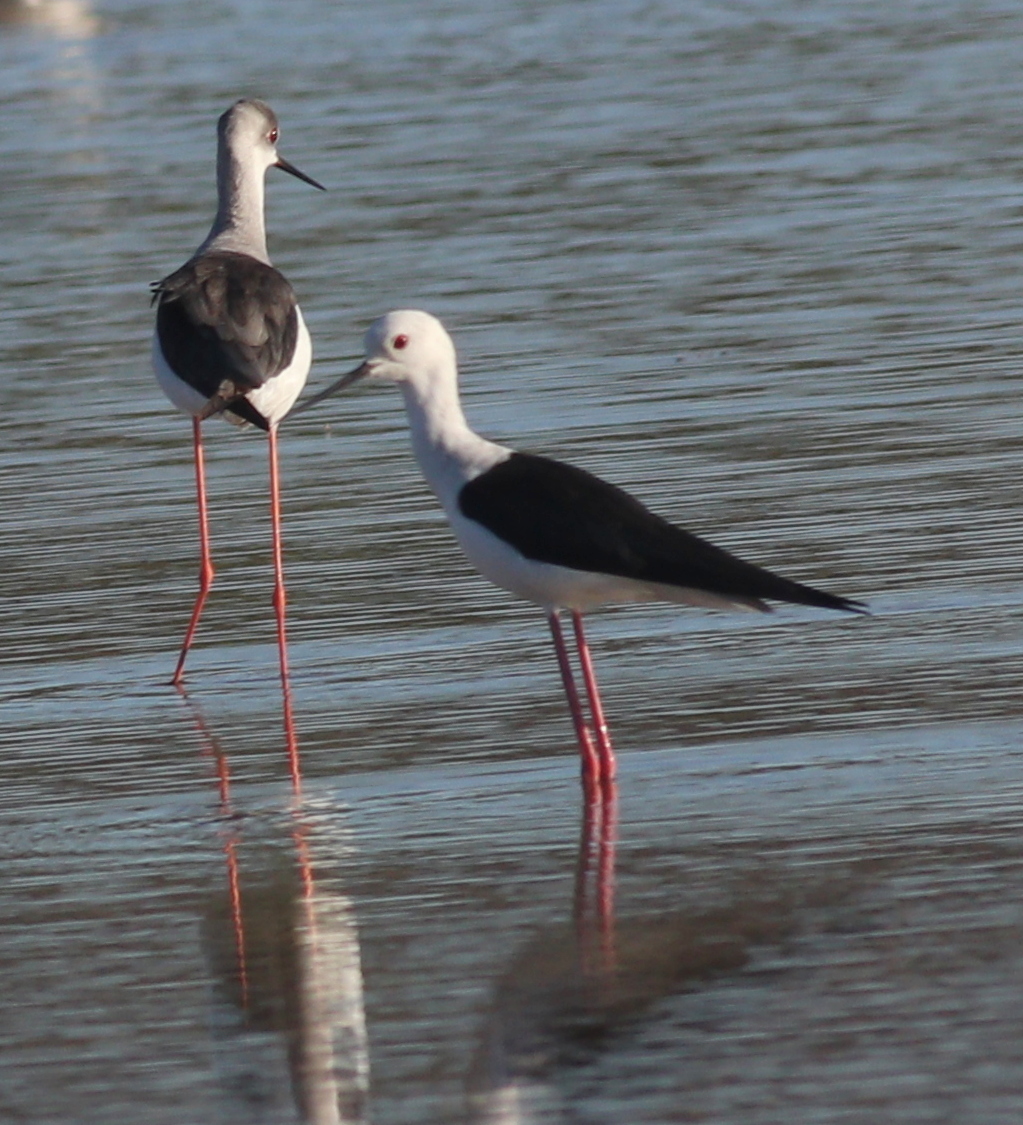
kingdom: Animalia
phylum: Chordata
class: Aves
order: Charadriiformes
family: Recurvirostridae
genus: Himantopus
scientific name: Himantopus himantopus
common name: Black-winged stilt
